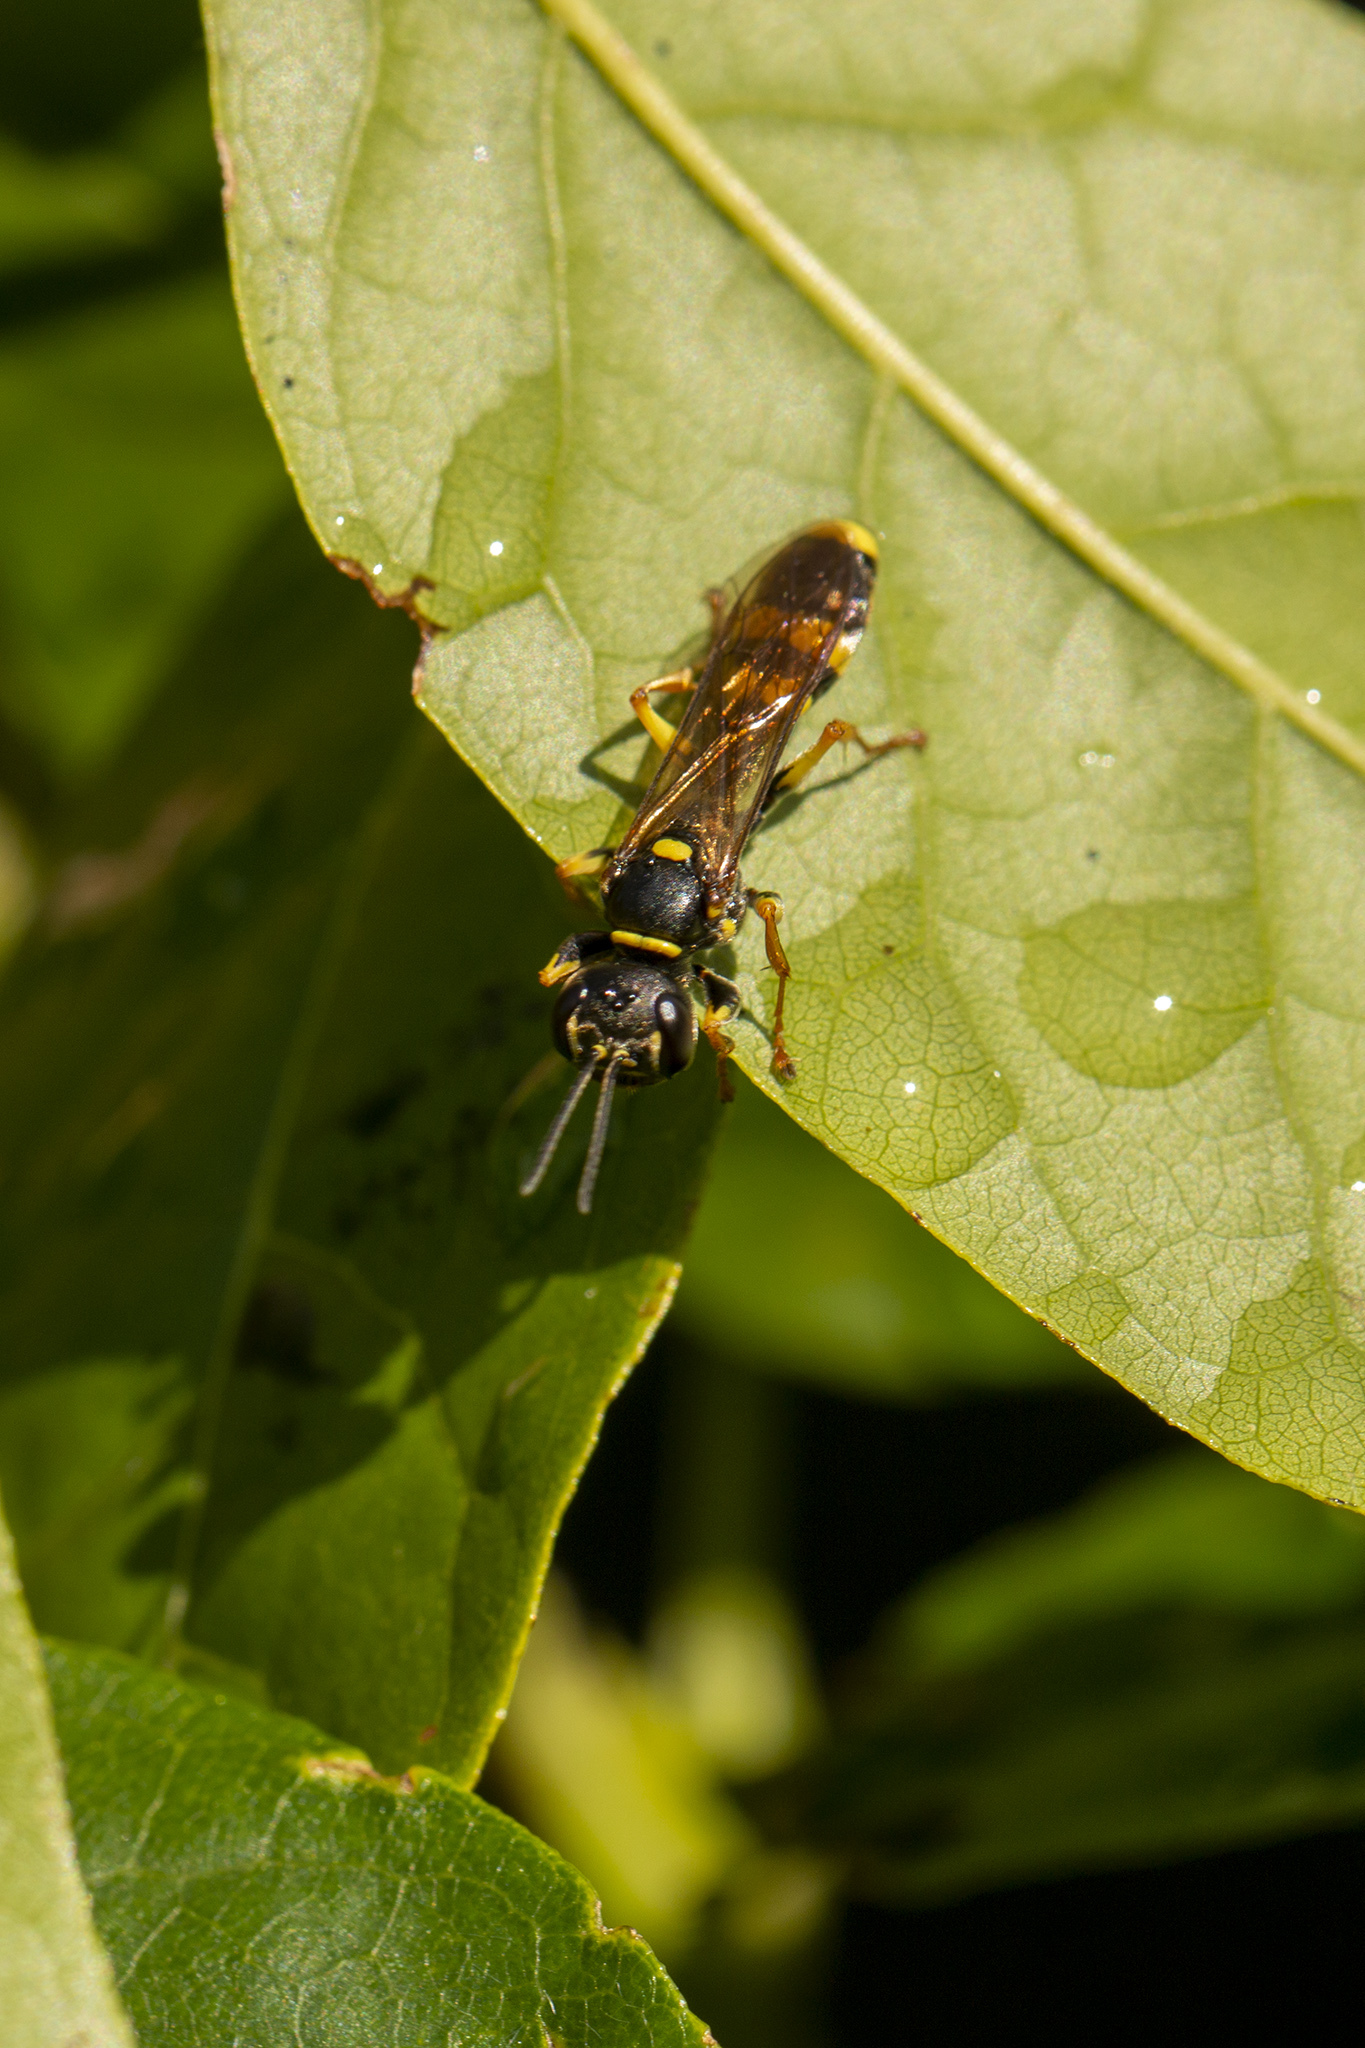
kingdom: Animalia
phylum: Arthropoda
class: Insecta
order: Hymenoptera
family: Crabronidae
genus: Mellinus
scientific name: Mellinus arvensis
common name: Field digger wasp
